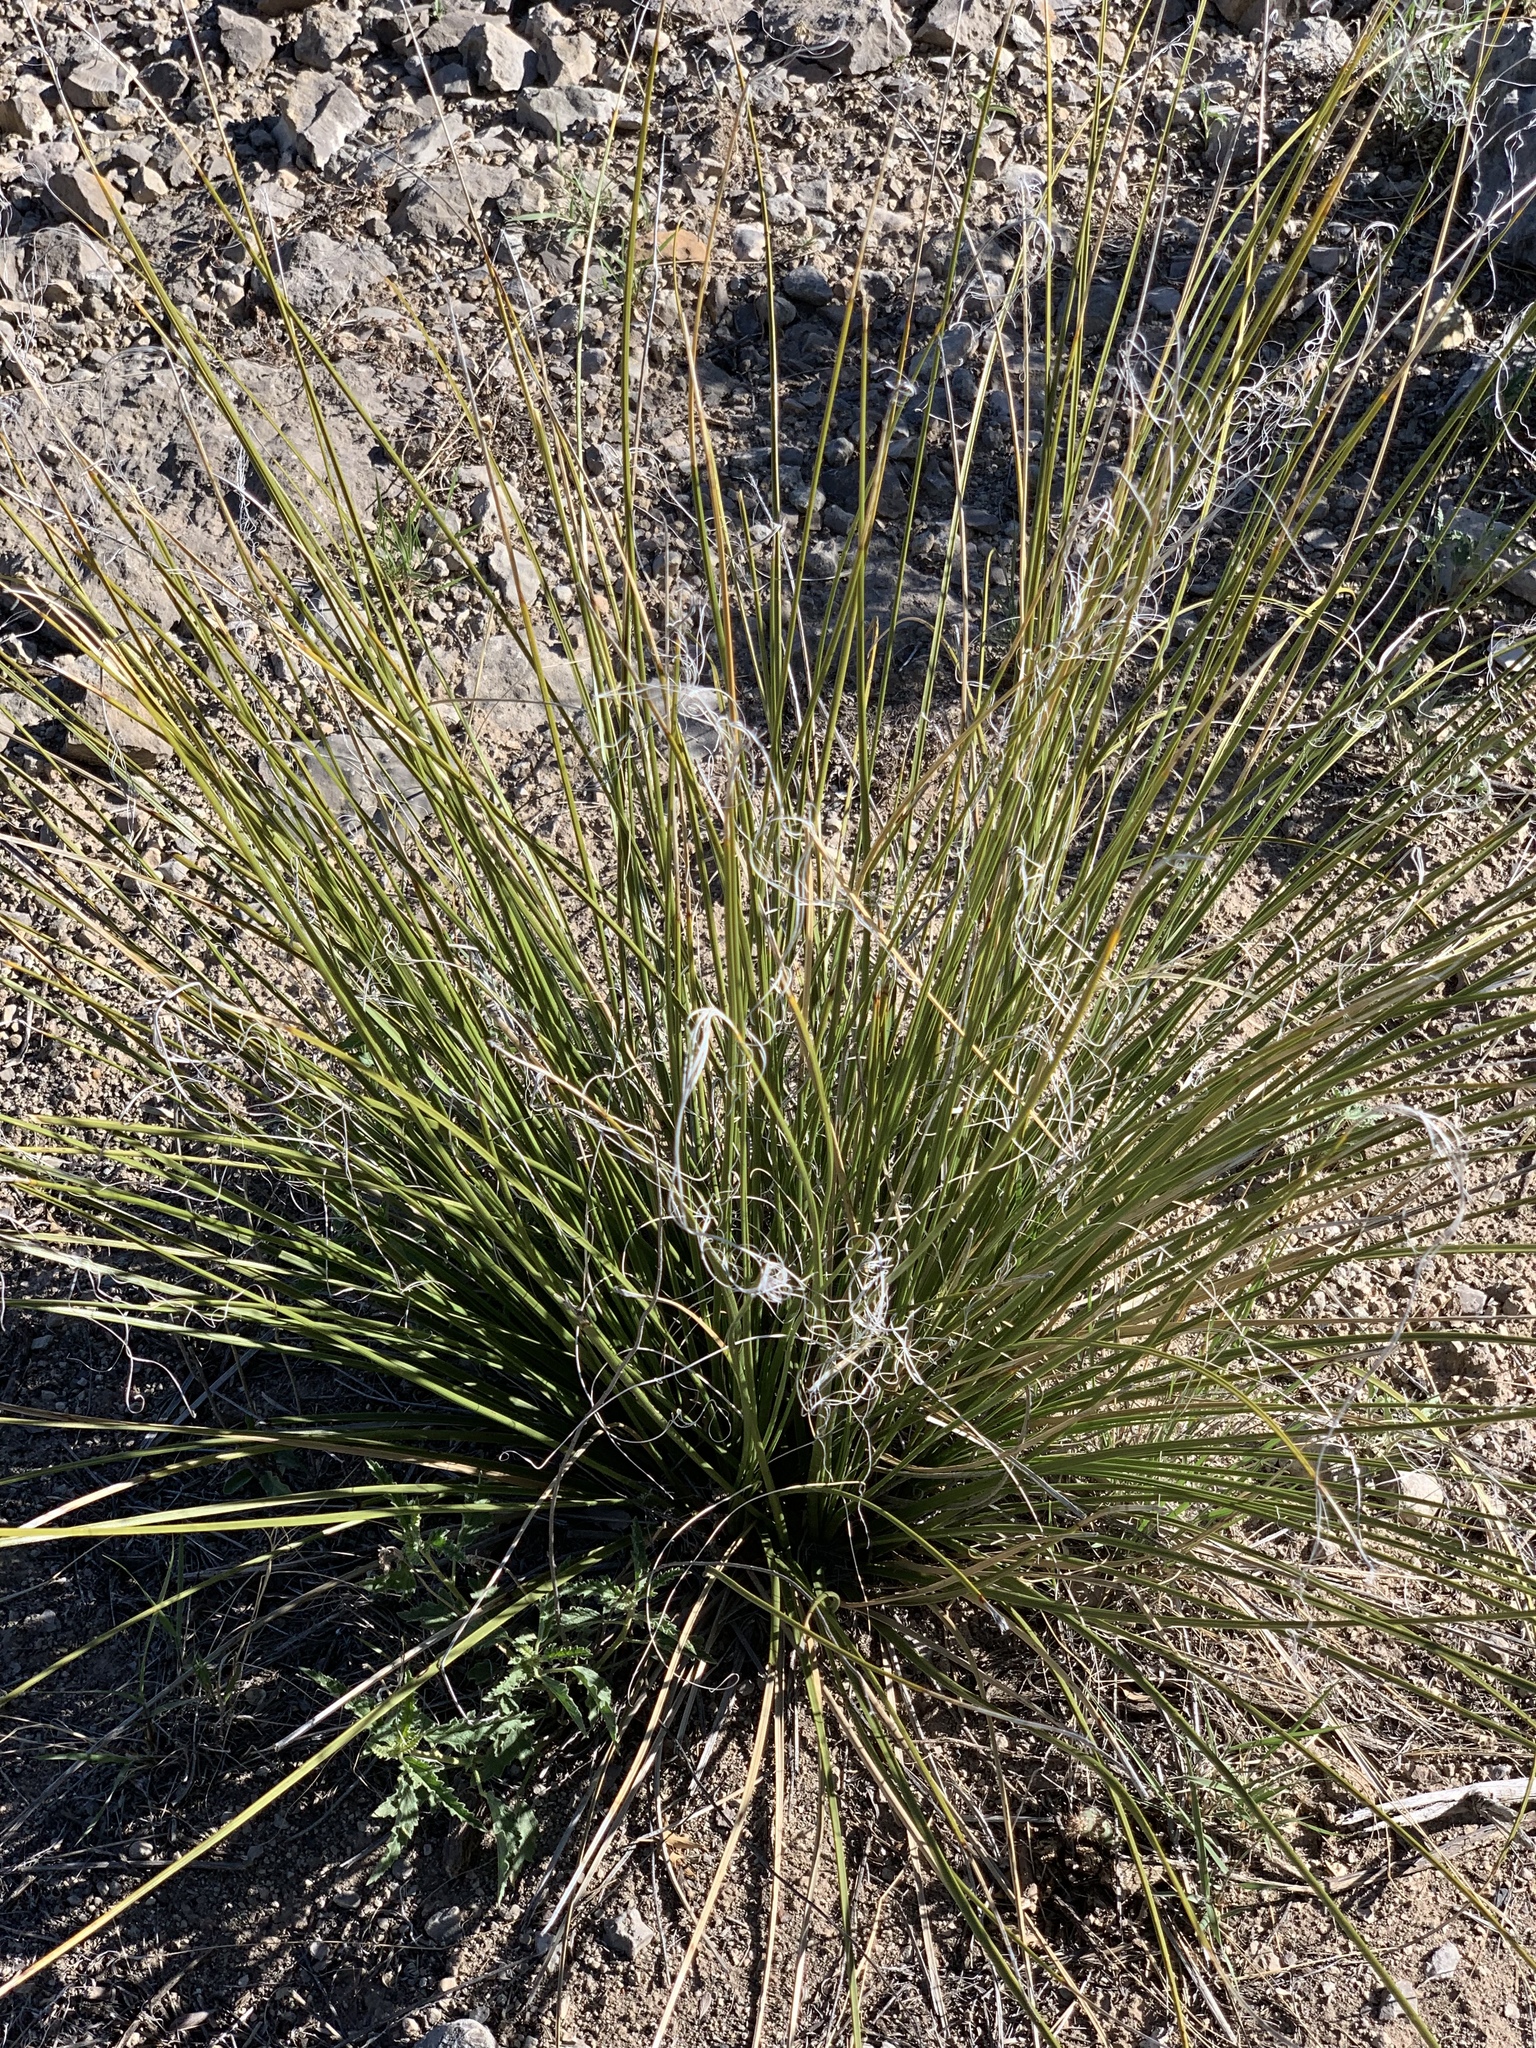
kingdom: Plantae
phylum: Tracheophyta
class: Liliopsida
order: Asparagales
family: Asparagaceae
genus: Nolina
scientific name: Nolina microcarpa
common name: Bear-grass
